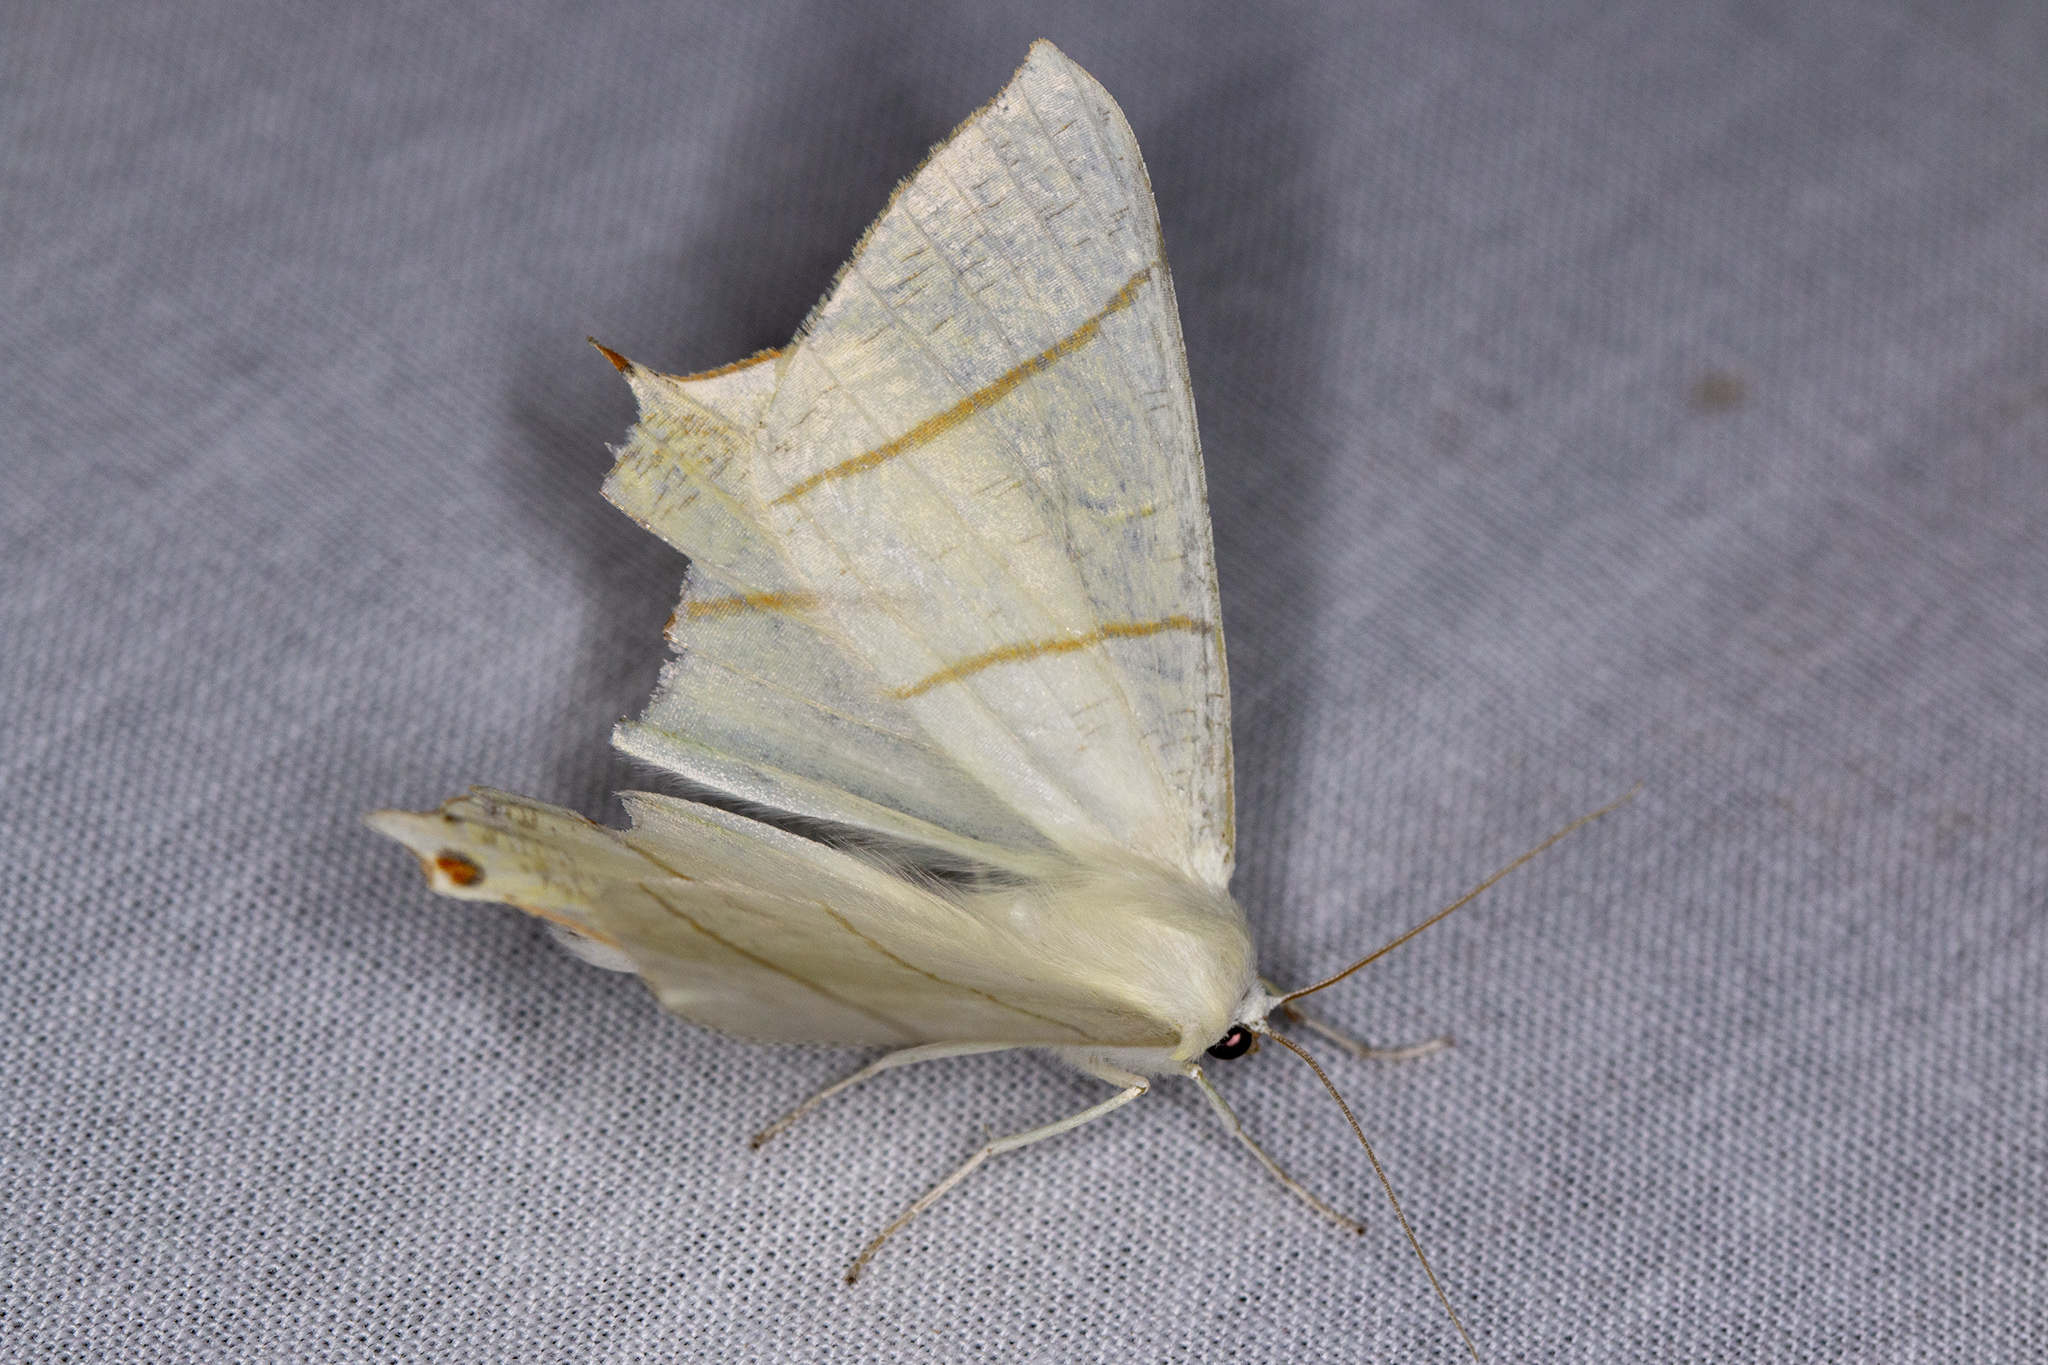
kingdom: Animalia
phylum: Arthropoda
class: Insecta
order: Lepidoptera
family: Geometridae
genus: Ourapteryx
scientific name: Ourapteryx sambucaria
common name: Swallow-tailed moth
